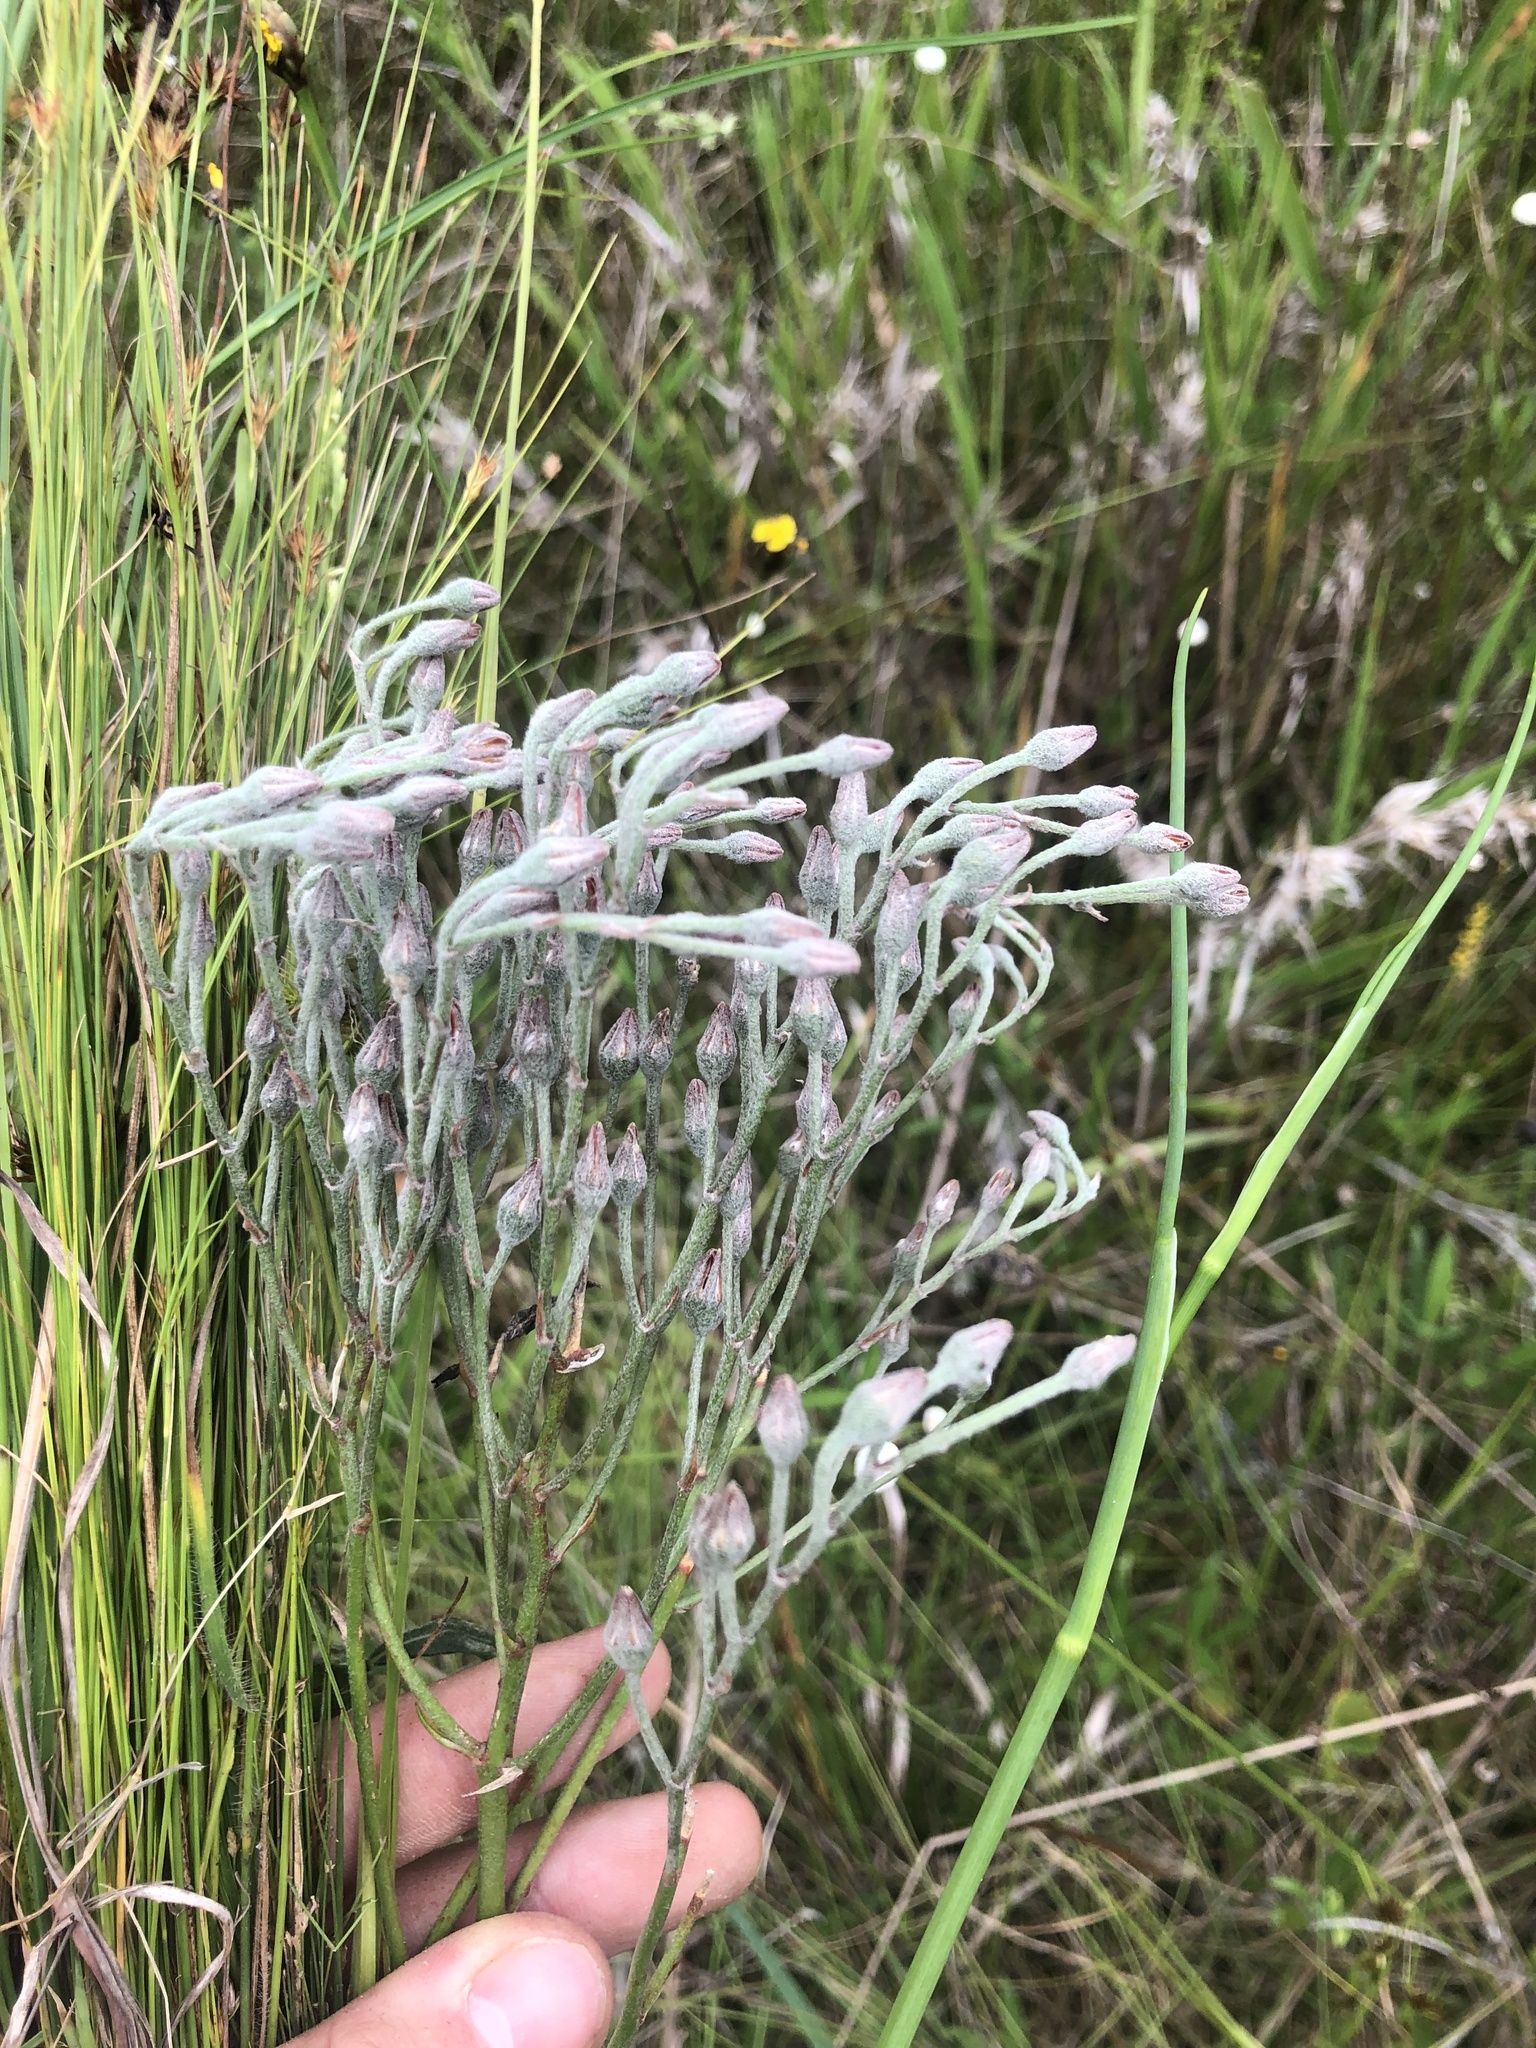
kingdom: Plantae
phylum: Tracheophyta
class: Liliopsida
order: Dioscoreales
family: Nartheciaceae
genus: Lophiola
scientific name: Lophiola aurea
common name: Golden-crest
